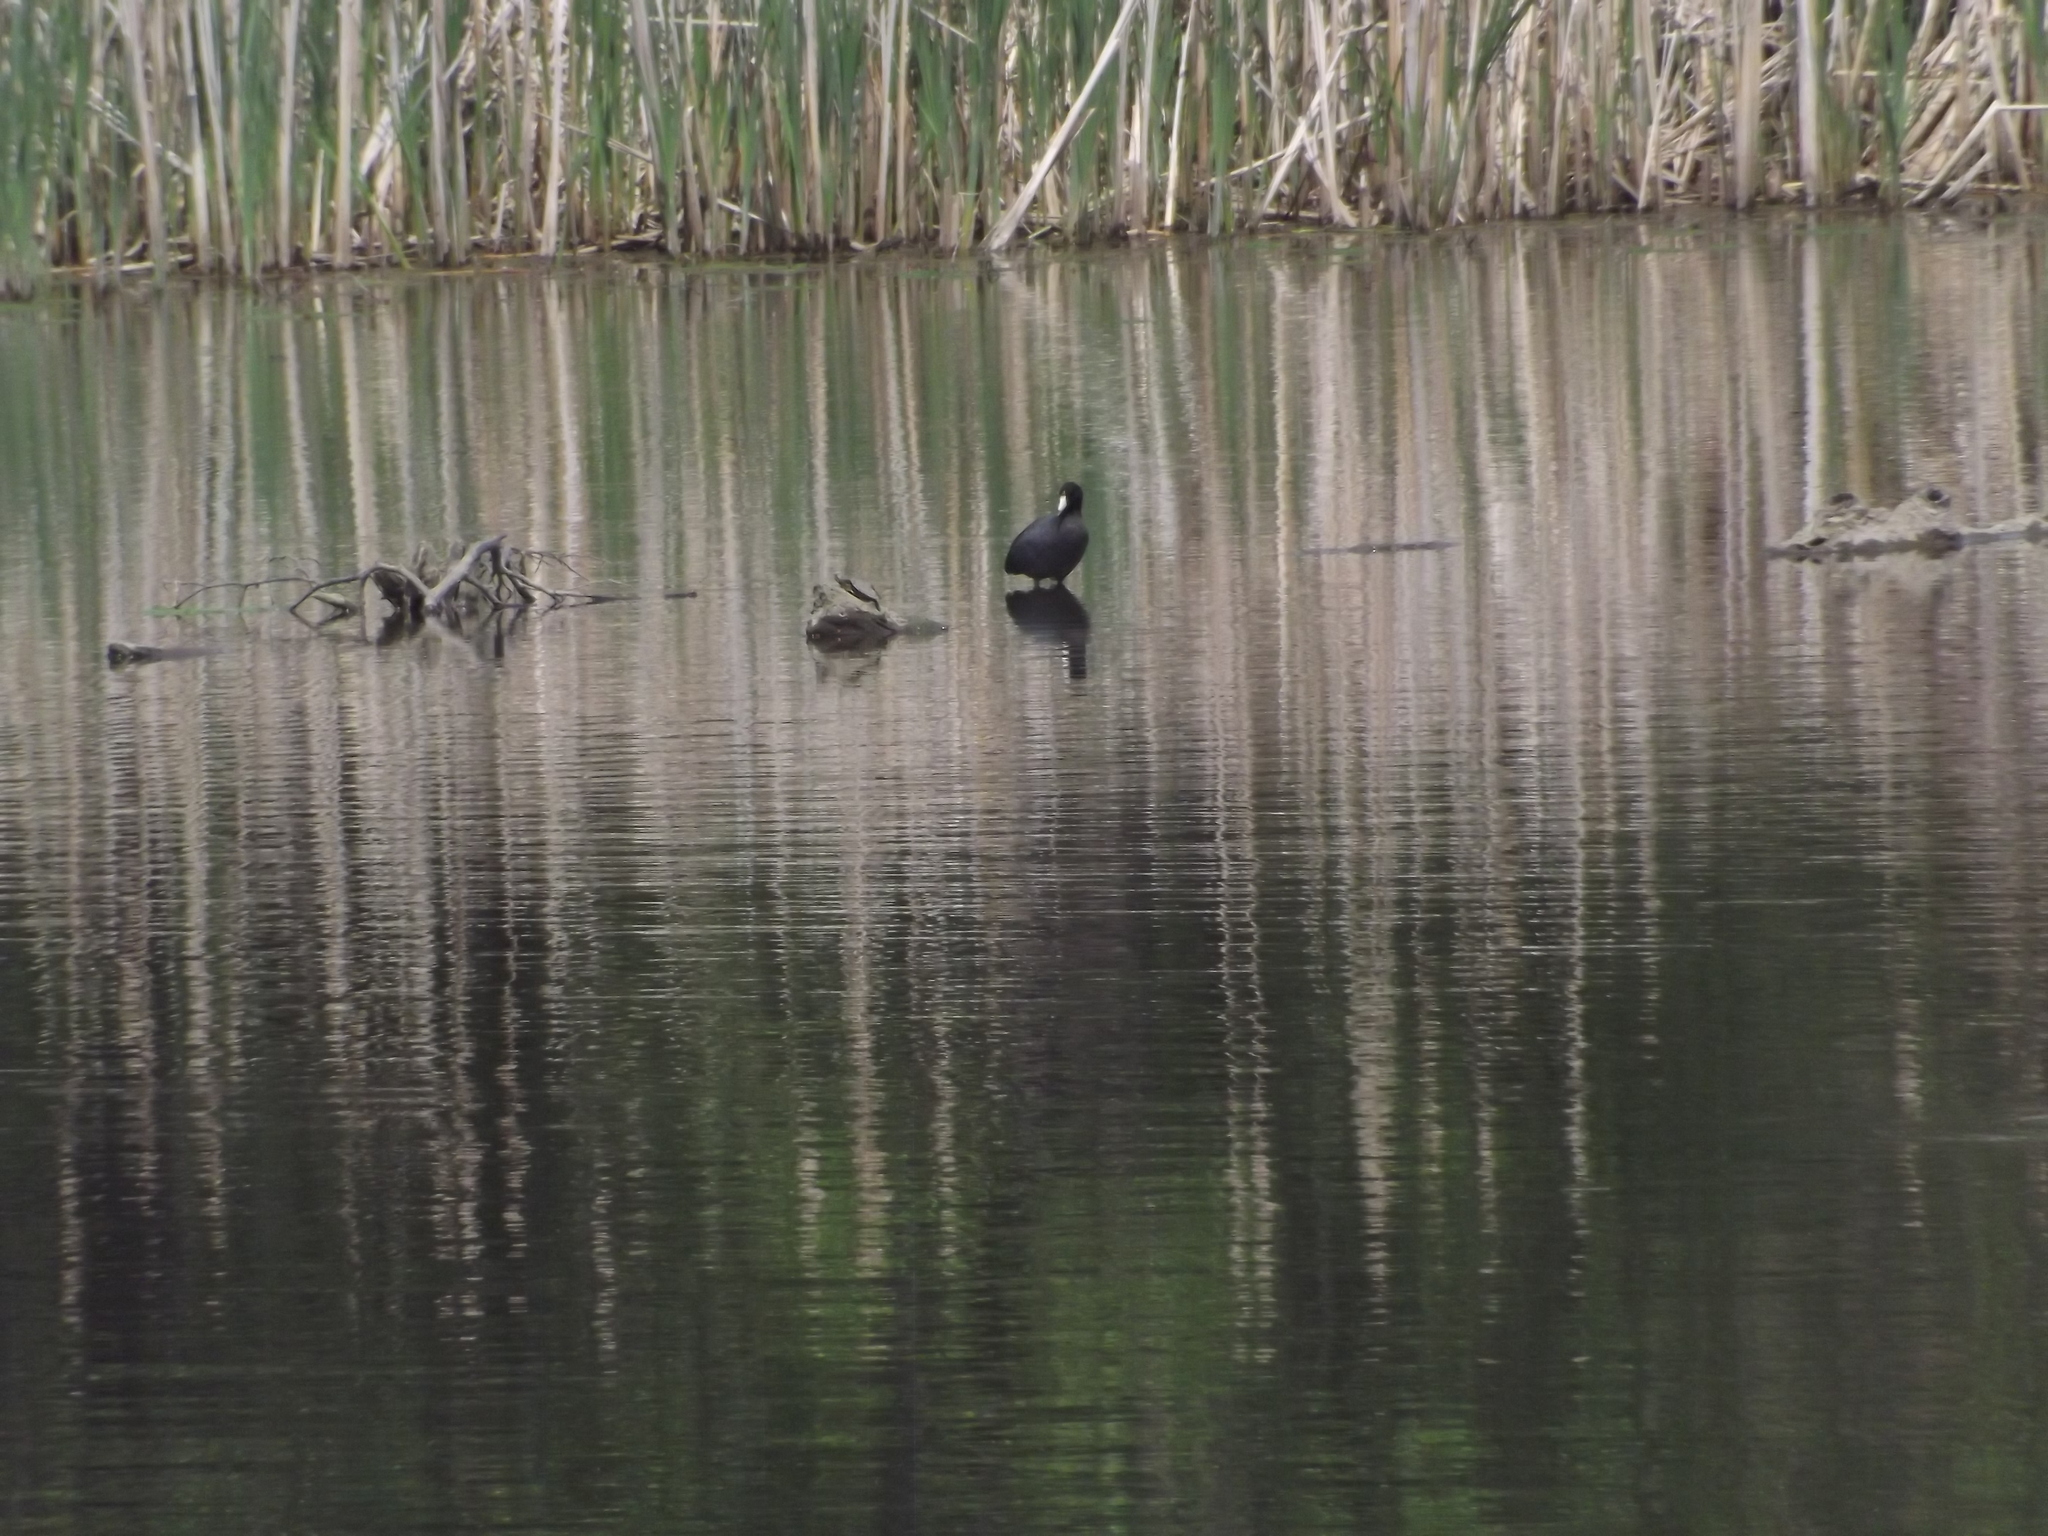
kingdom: Animalia
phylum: Chordata
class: Aves
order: Gruiformes
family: Rallidae
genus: Fulica
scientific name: Fulica americana
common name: American coot
